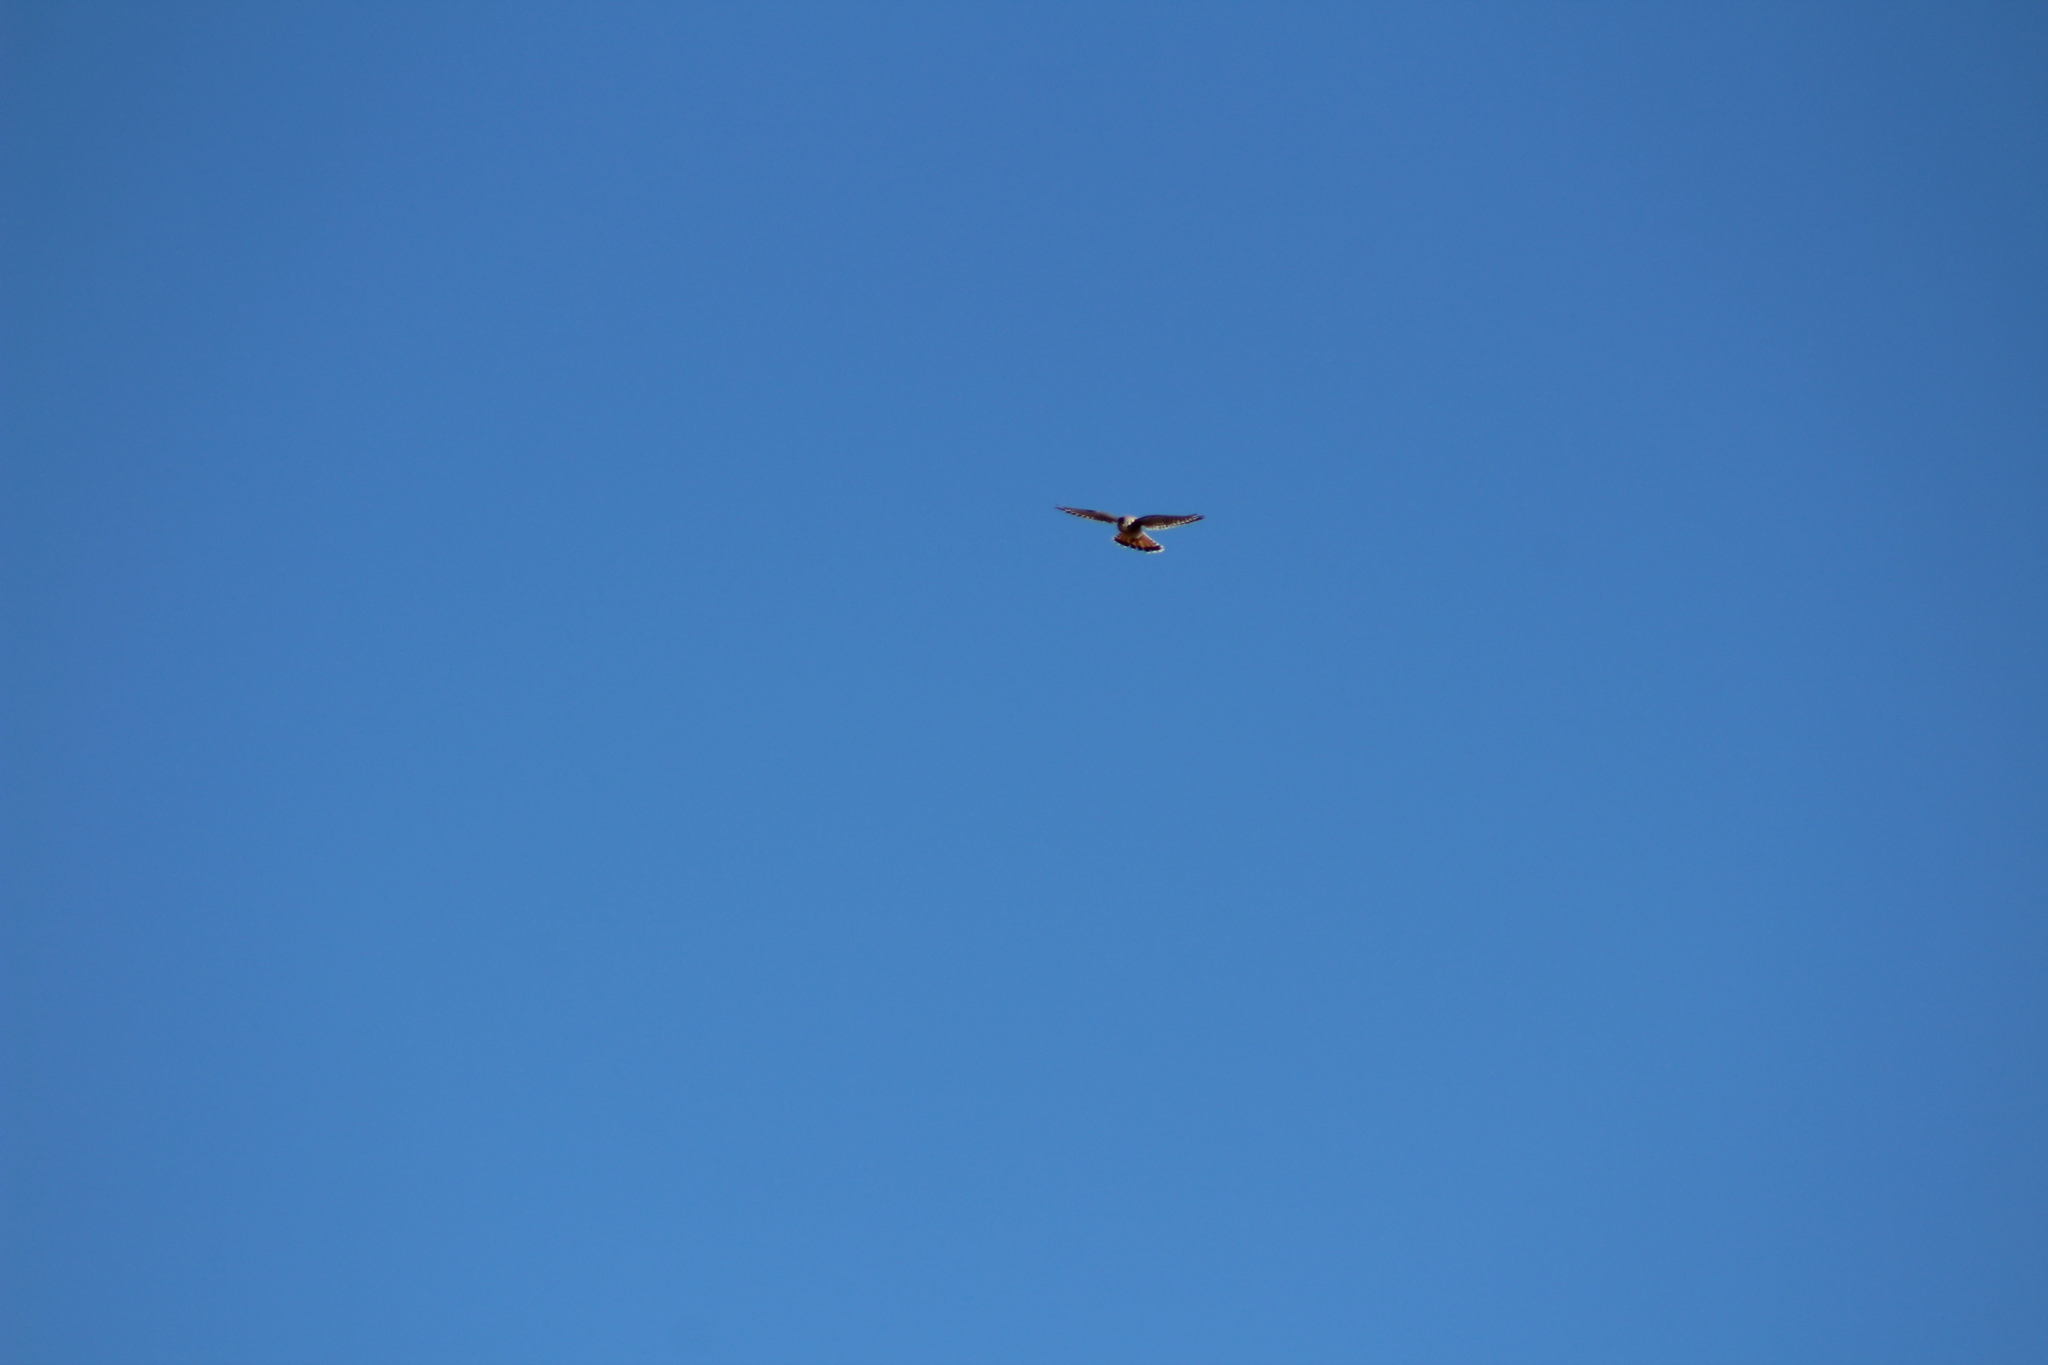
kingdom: Animalia
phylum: Chordata
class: Aves
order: Falconiformes
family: Falconidae
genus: Falco
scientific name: Falco sparverius
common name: American kestrel
